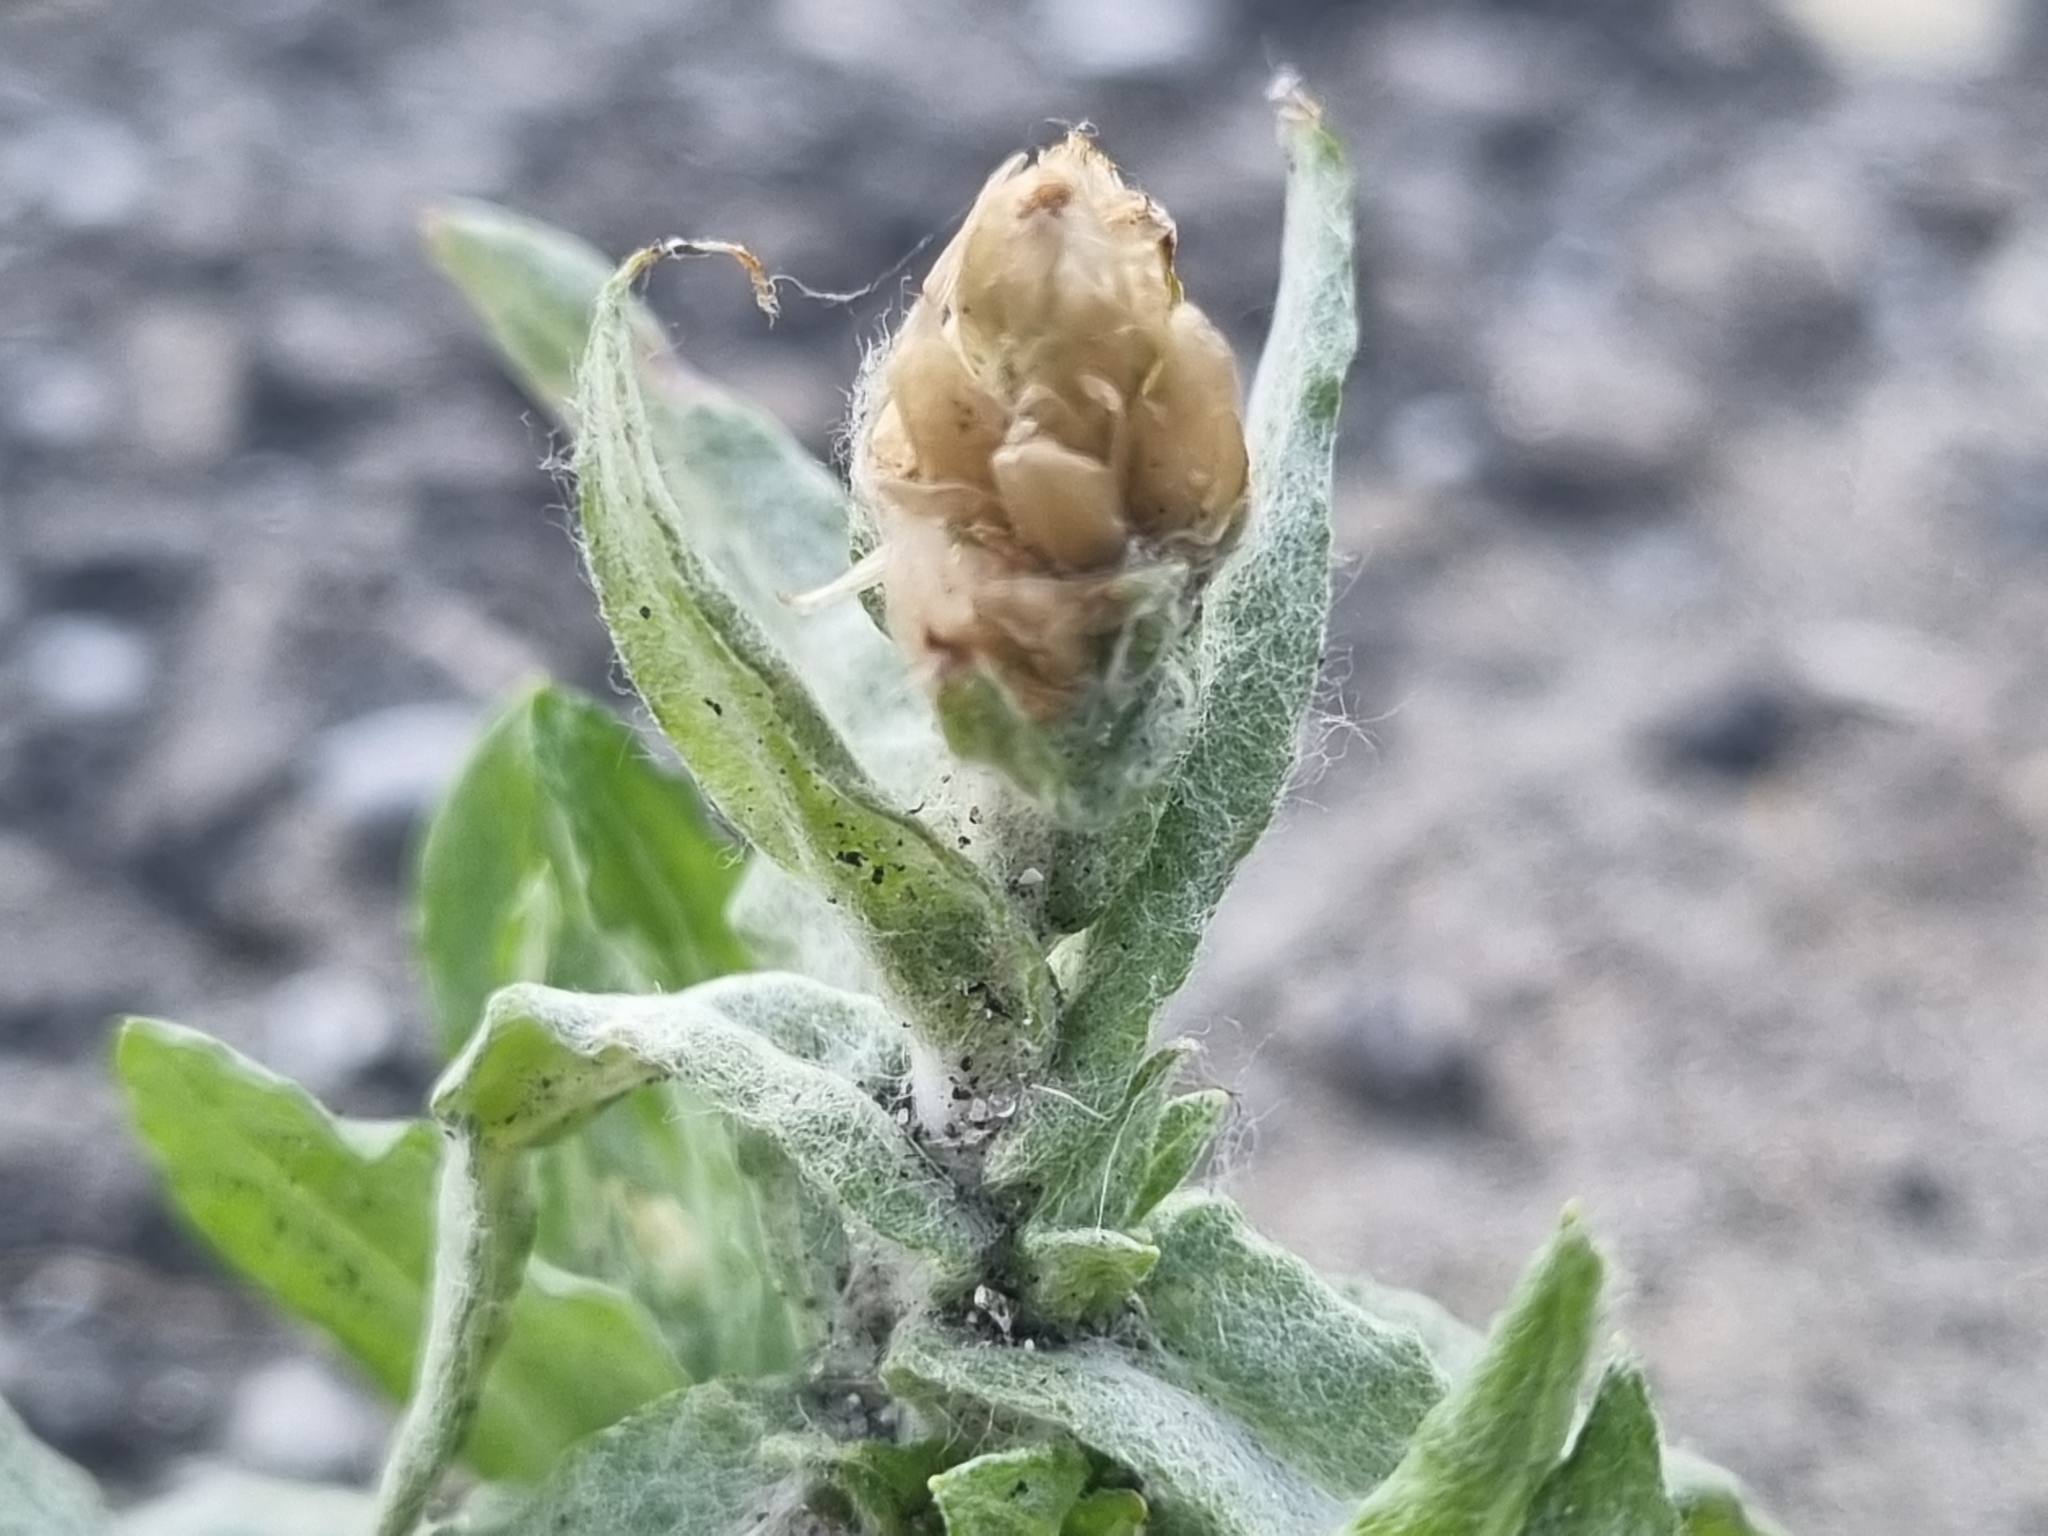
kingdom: Plantae
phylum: Tracheophyta
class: Magnoliopsida
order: Asterales
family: Asteraceae
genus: Helichrysum
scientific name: Helichrysum luteoalbum
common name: Daisy
